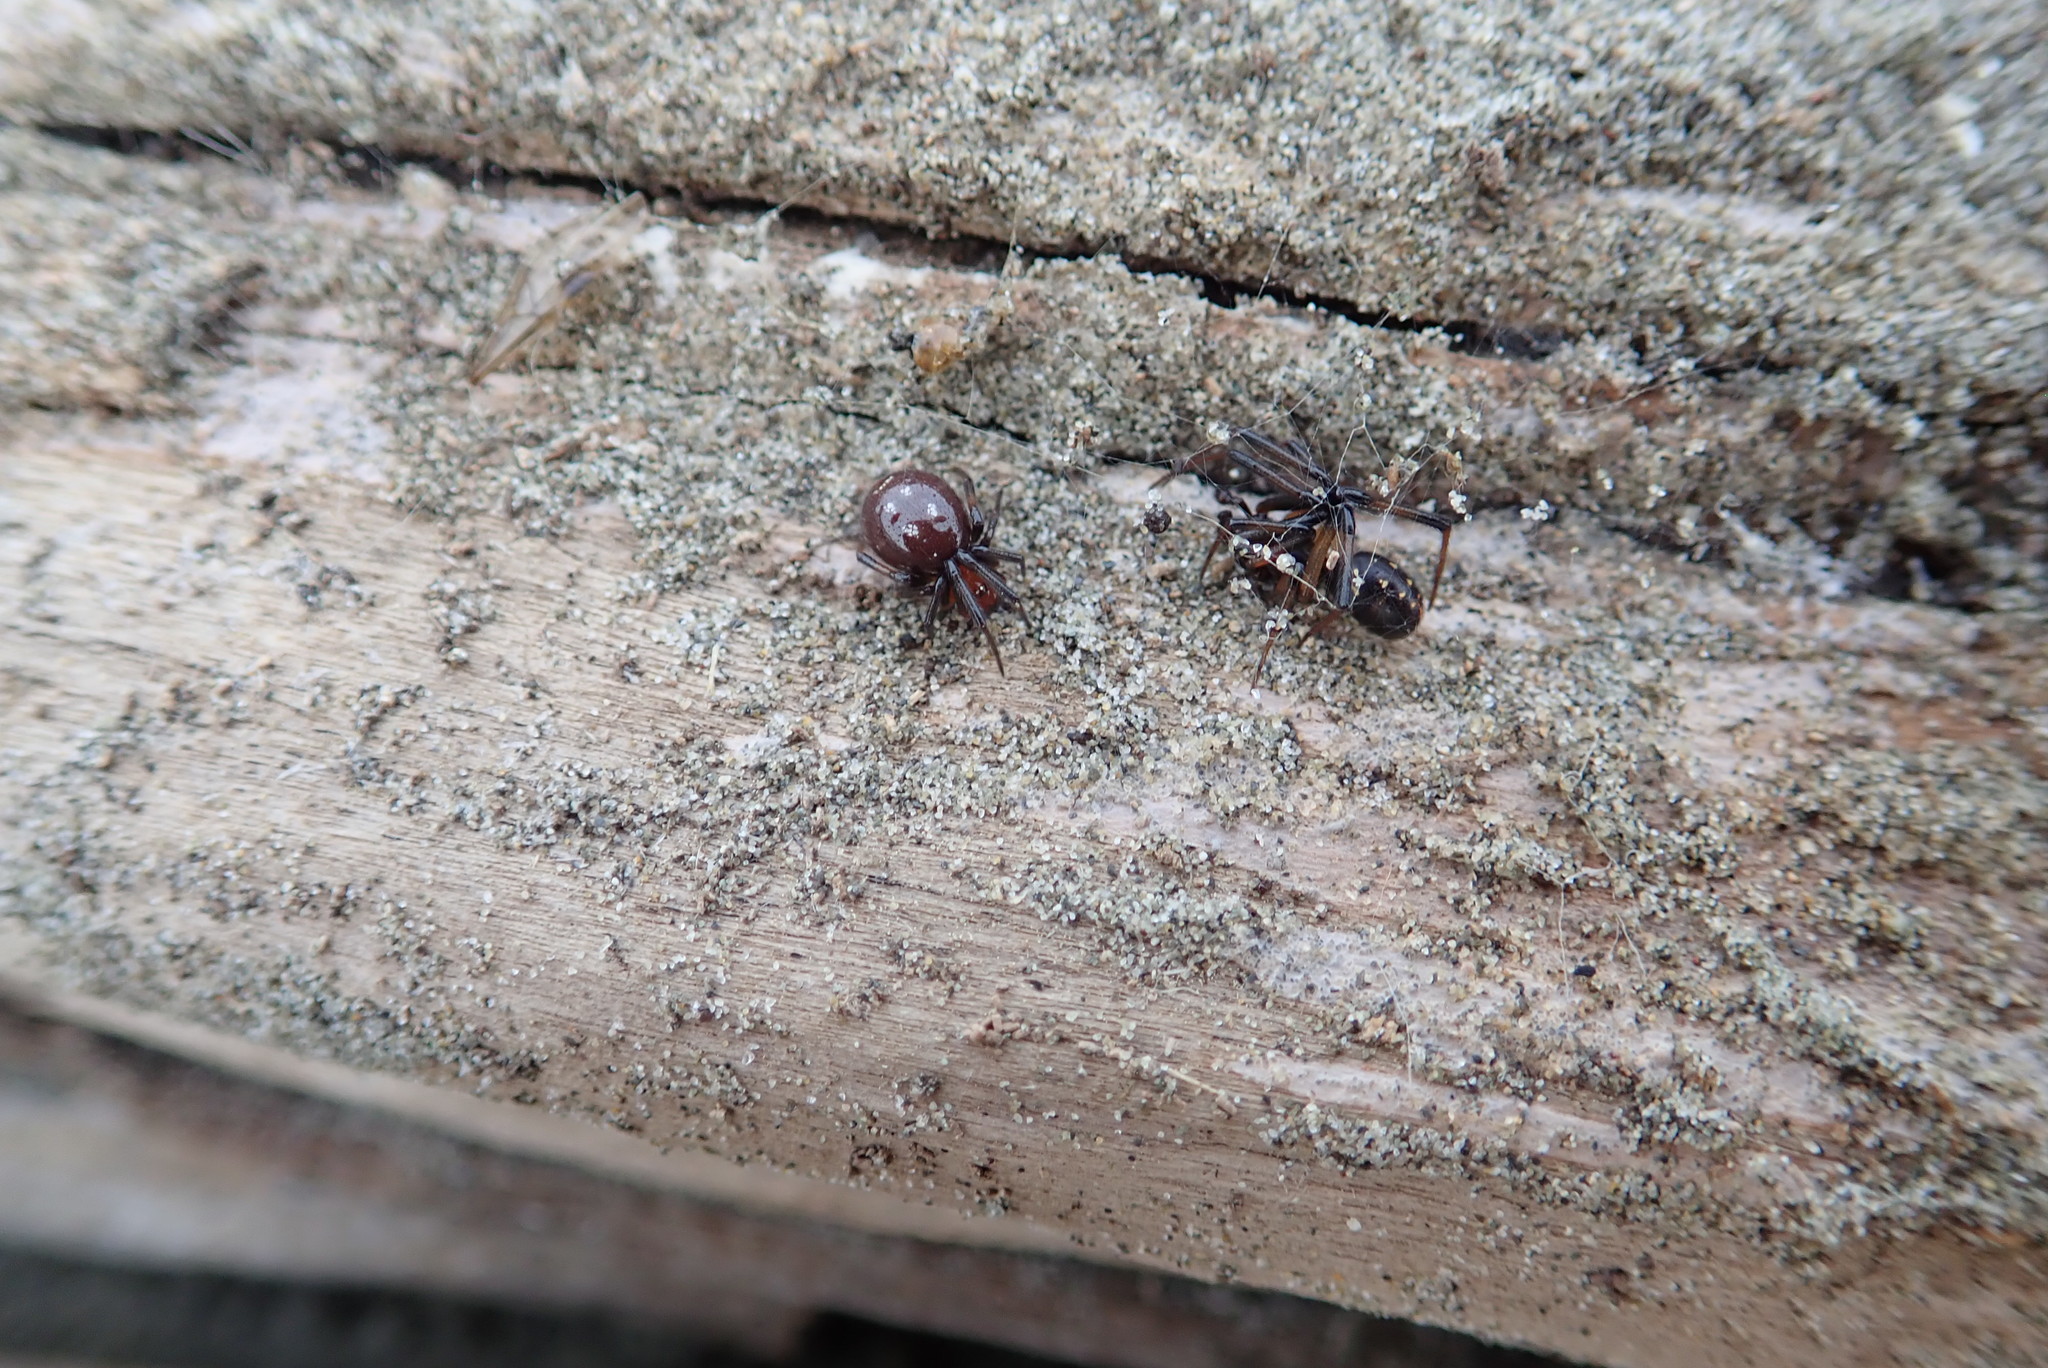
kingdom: Animalia
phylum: Arthropoda
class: Arachnida
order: Araneae
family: Theridiidae
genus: Steatoda
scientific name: Steatoda capensis
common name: Cobweb weaver
